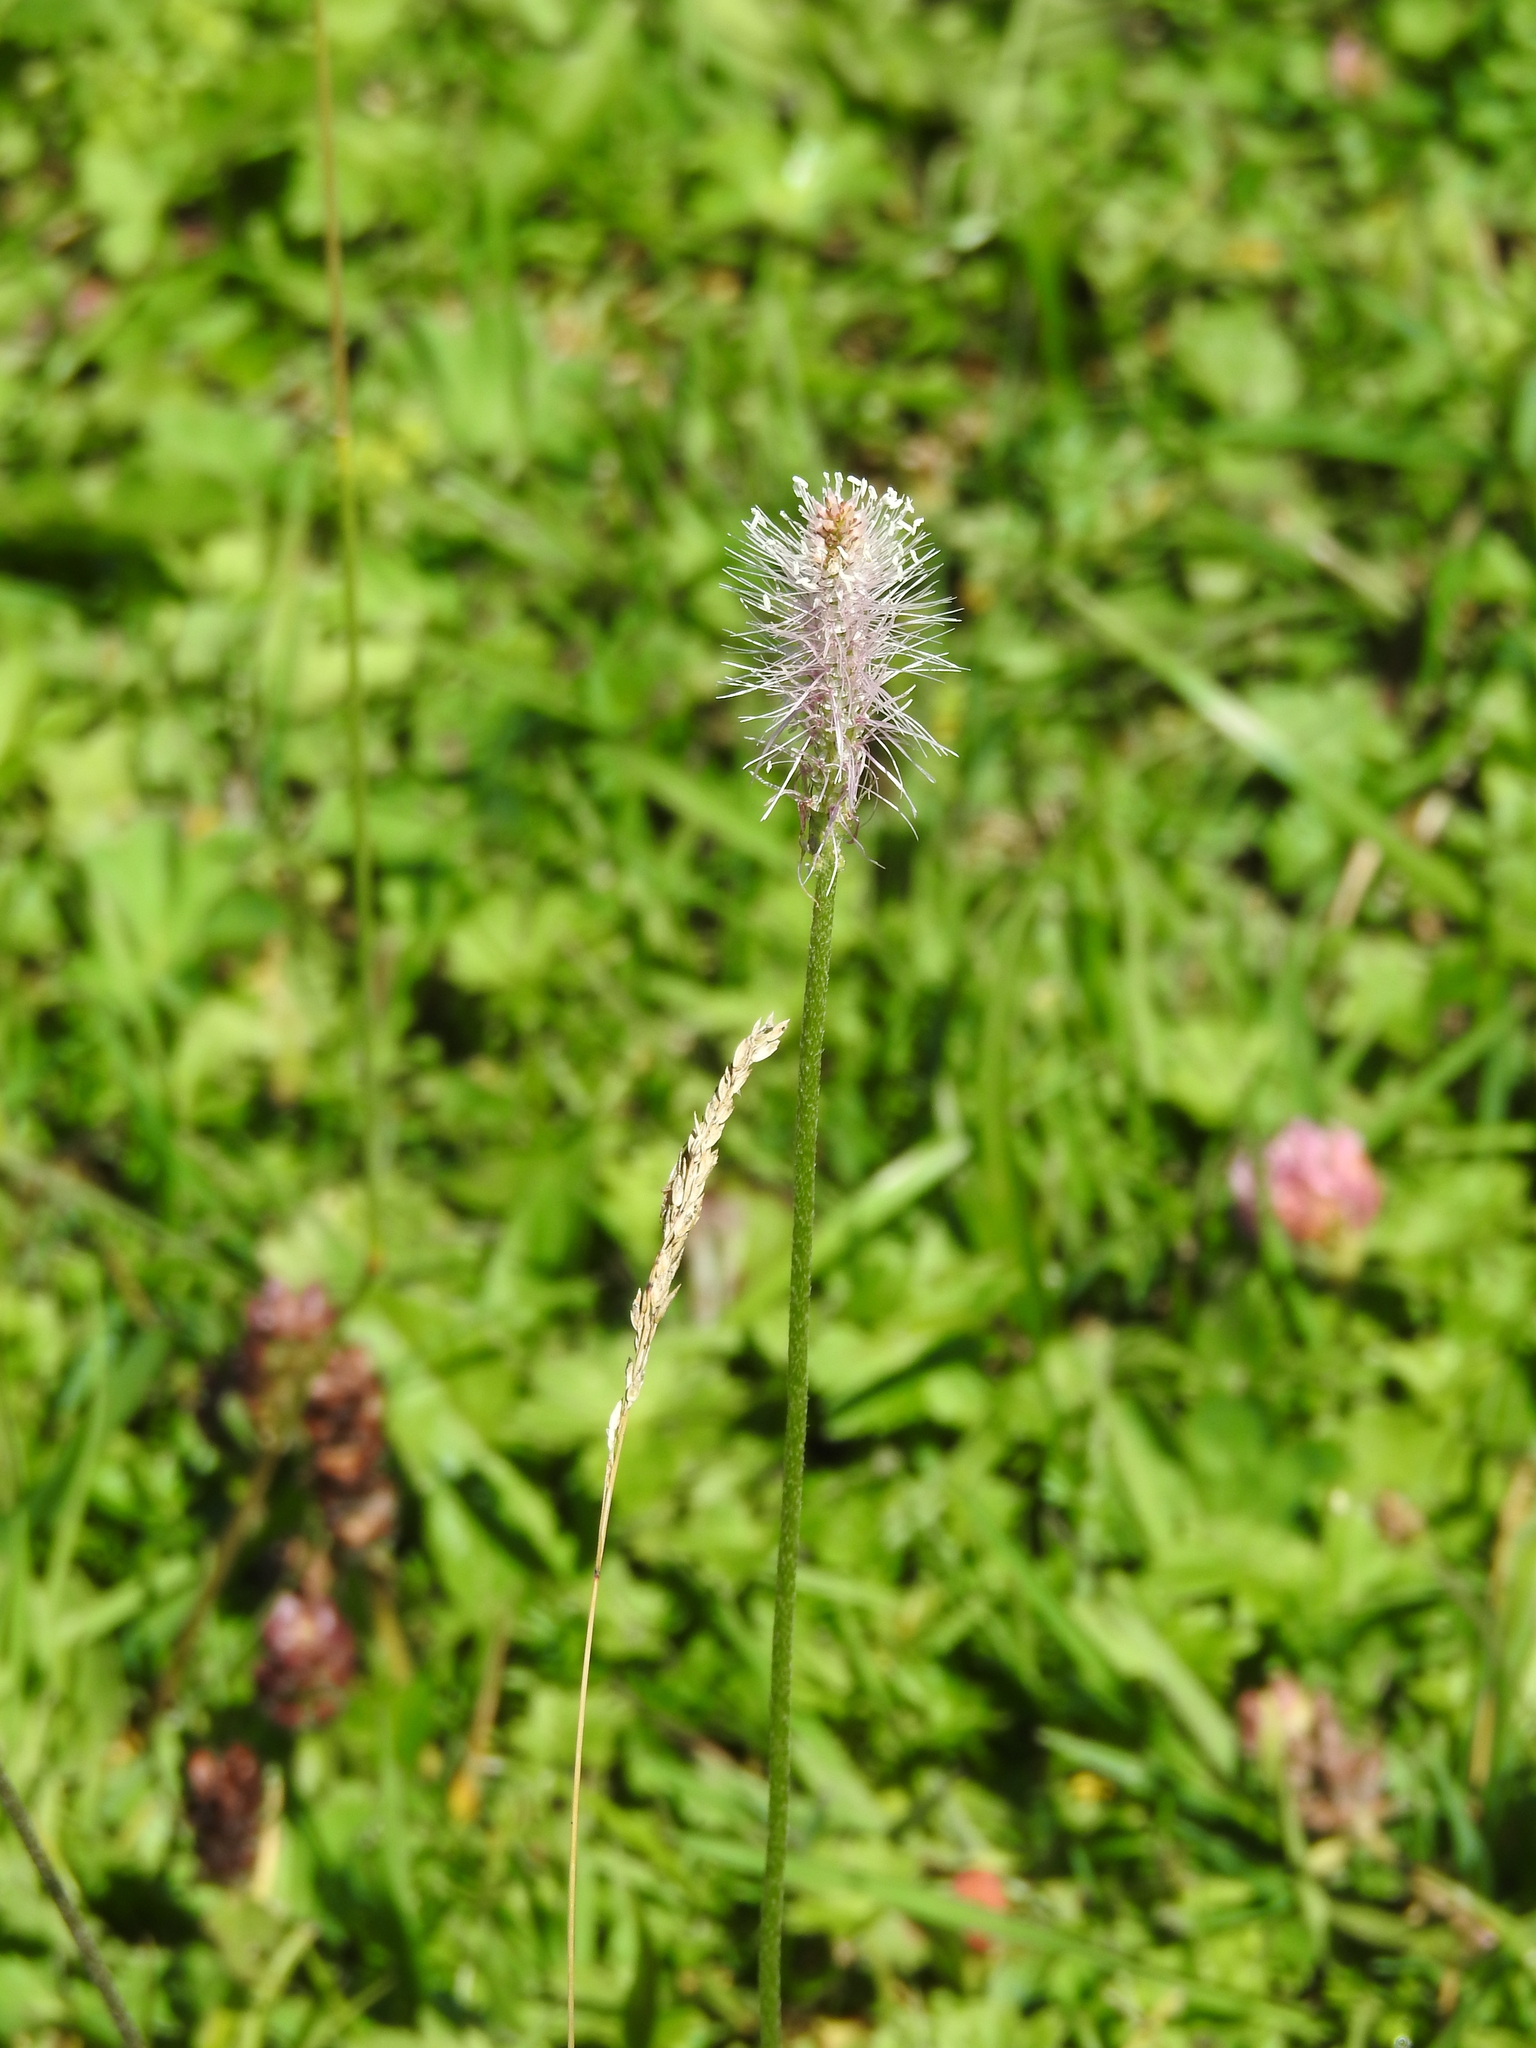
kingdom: Plantae
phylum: Tracheophyta
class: Magnoliopsida
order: Lamiales
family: Plantaginaceae
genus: Plantago
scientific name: Plantago media
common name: Hoary plantain
